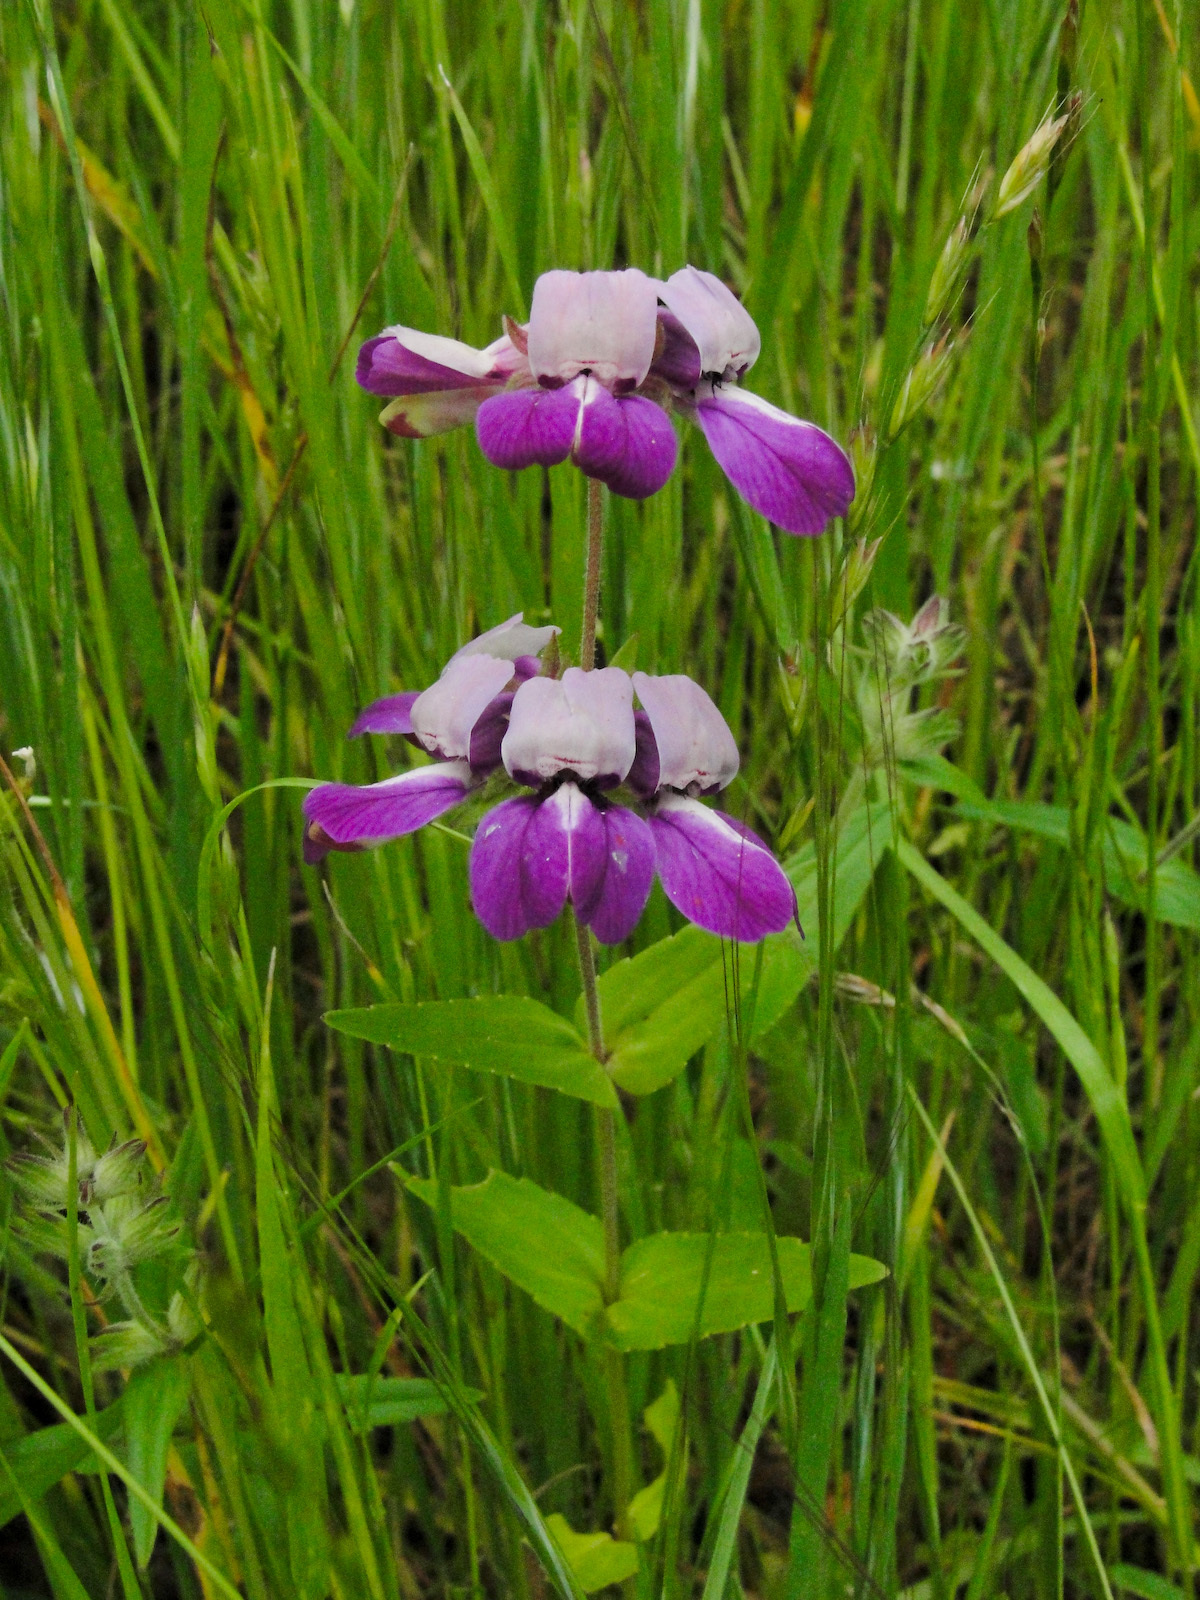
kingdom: Plantae
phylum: Tracheophyta
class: Magnoliopsida
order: Lamiales
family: Plantaginaceae
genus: Collinsia
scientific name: Collinsia heterophylla
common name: Chinese-houses
